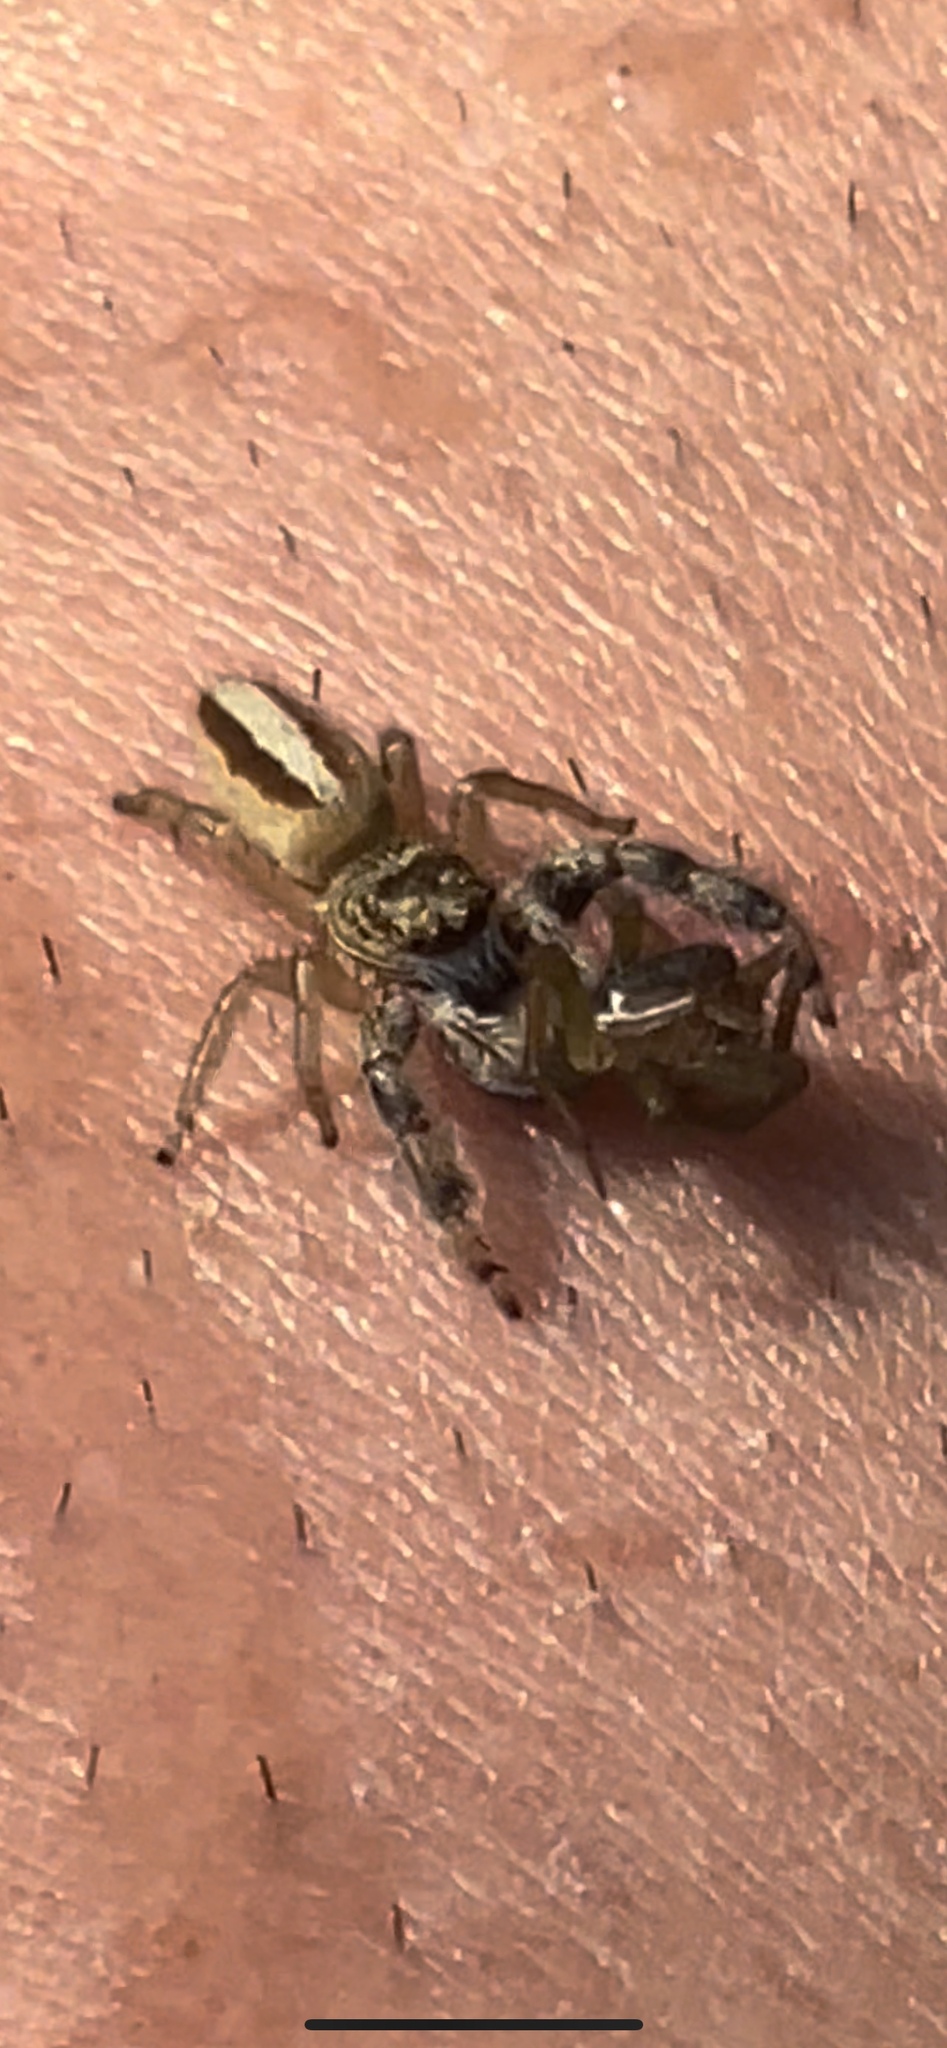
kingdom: Animalia
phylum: Arthropoda
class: Arachnida
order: Araneae
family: Salticidae
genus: Marpissa
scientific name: Marpissa formosa
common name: Short-bellied slender jumping spider
